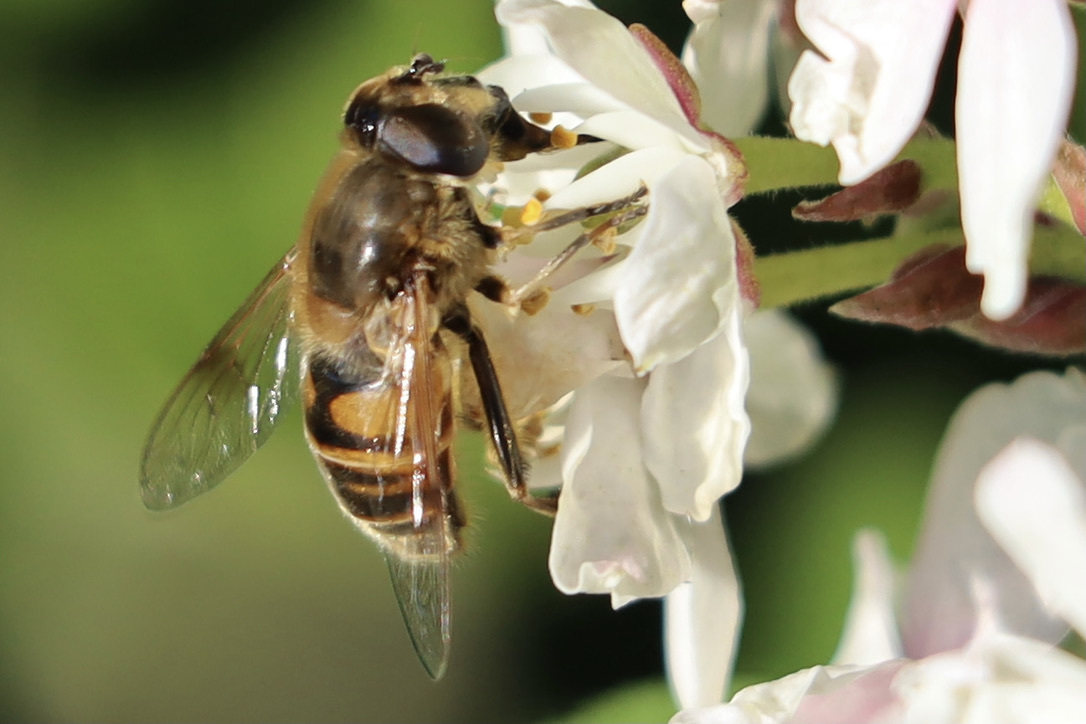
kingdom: Animalia
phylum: Arthropoda
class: Insecta
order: Diptera
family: Syrphidae
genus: Eristalis
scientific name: Eristalis tenax
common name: Drone fly
